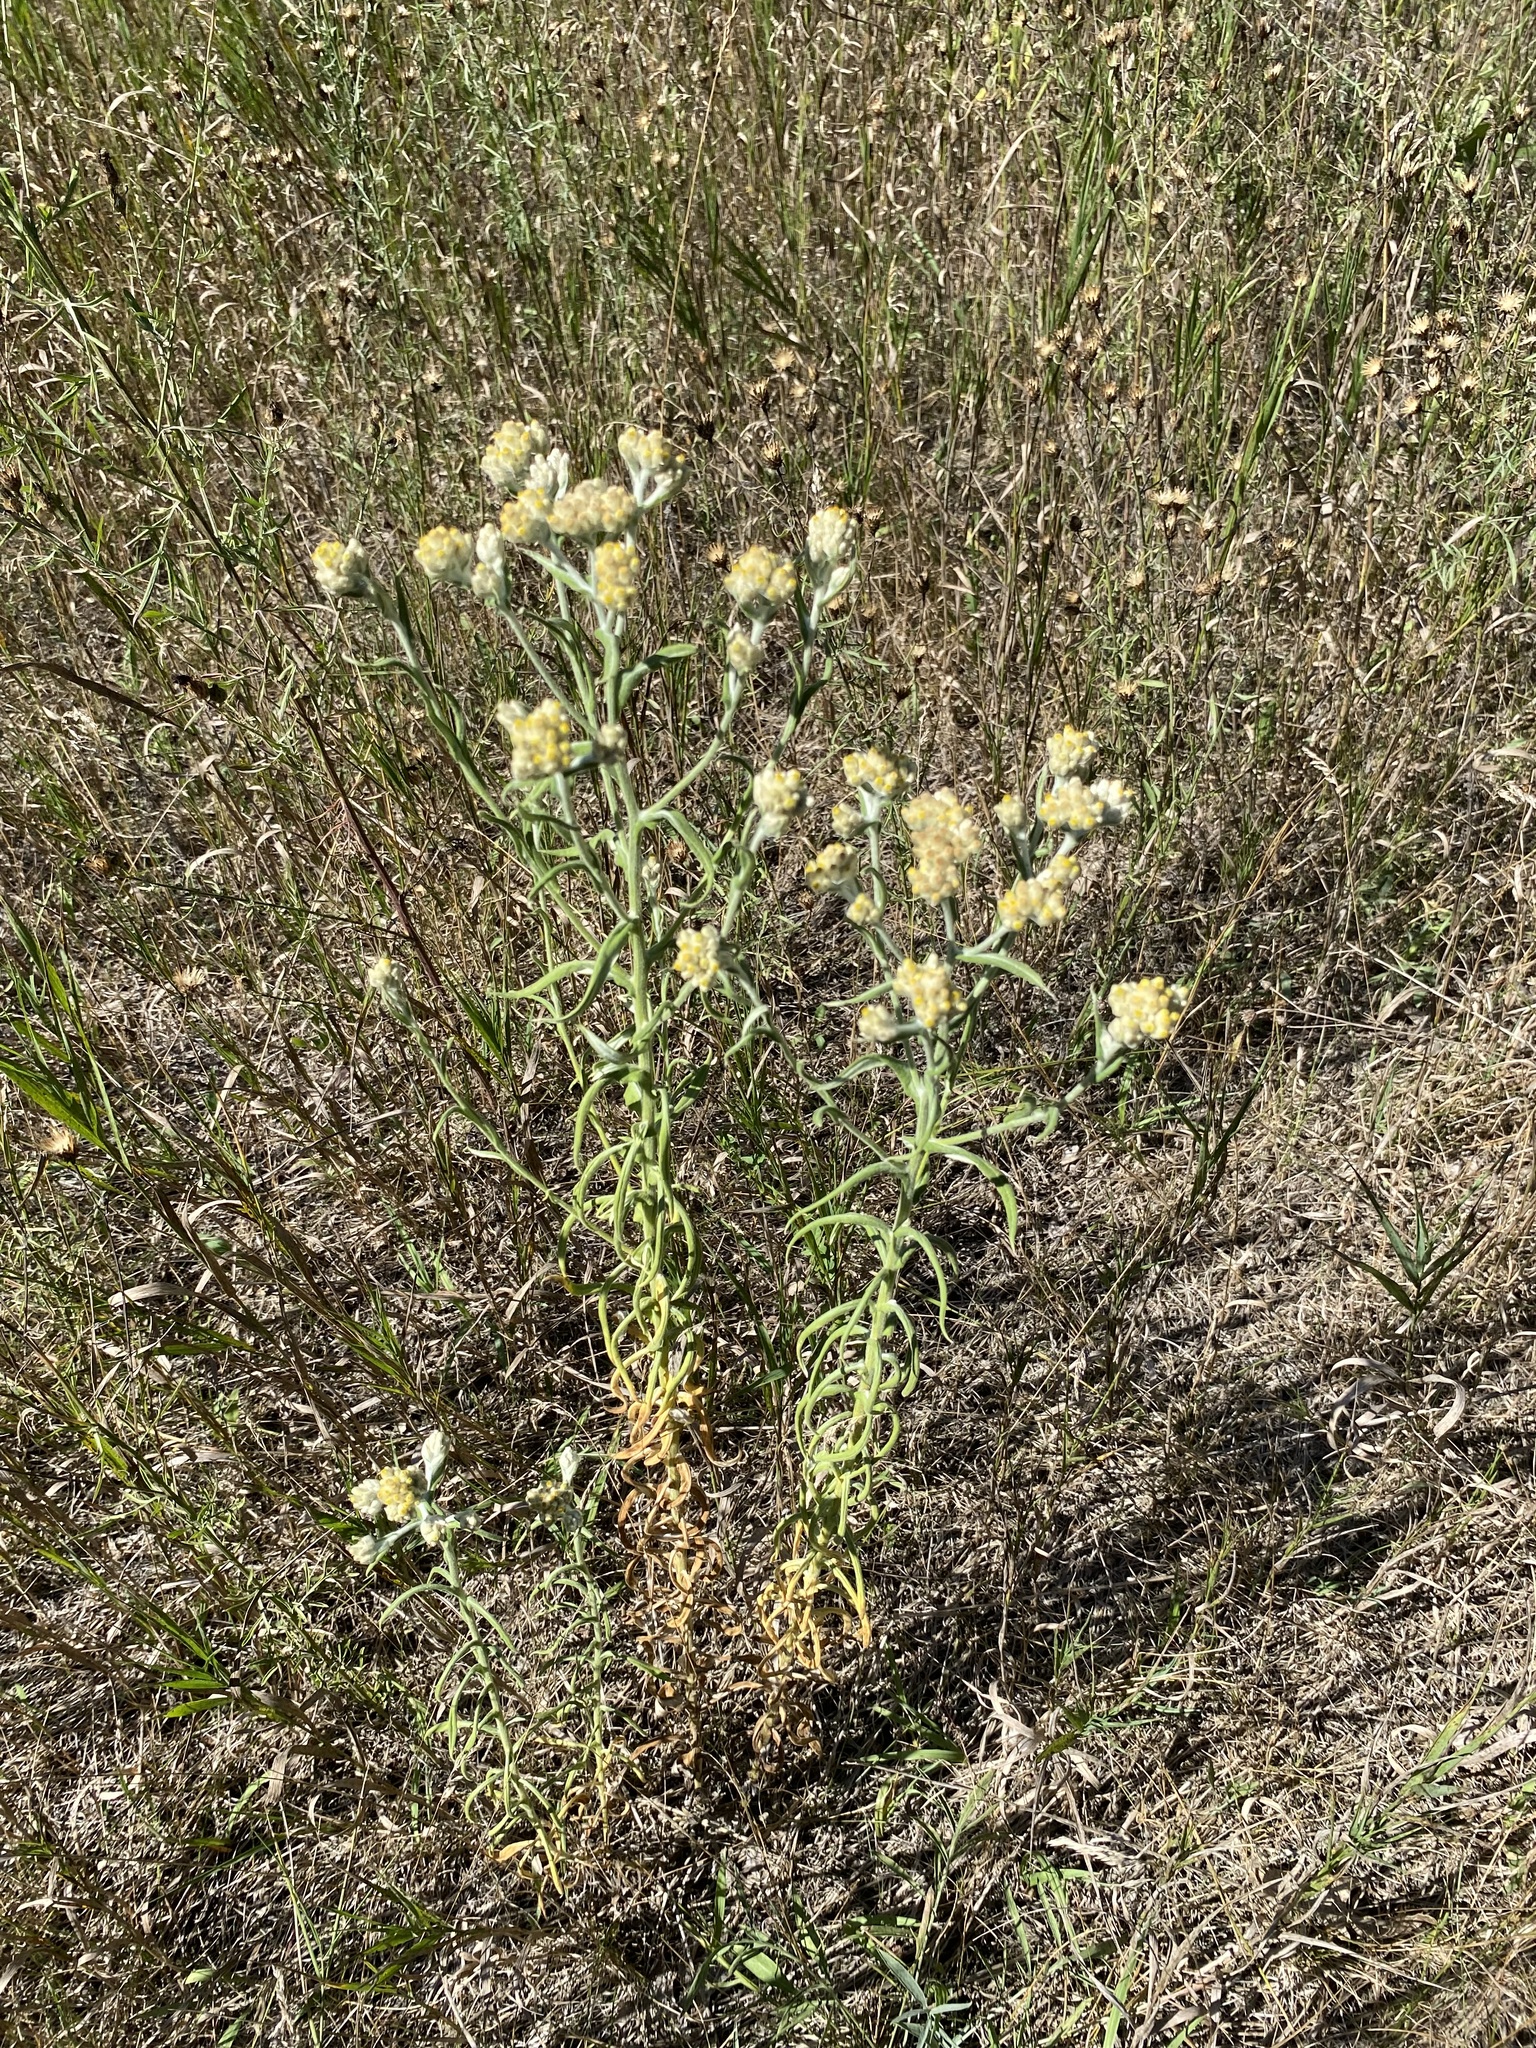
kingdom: Plantae
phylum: Tracheophyta
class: Magnoliopsida
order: Asterales
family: Asteraceae
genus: Pseudognaphalium
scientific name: Pseudognaphalium macounii
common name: Clammy cudweed
